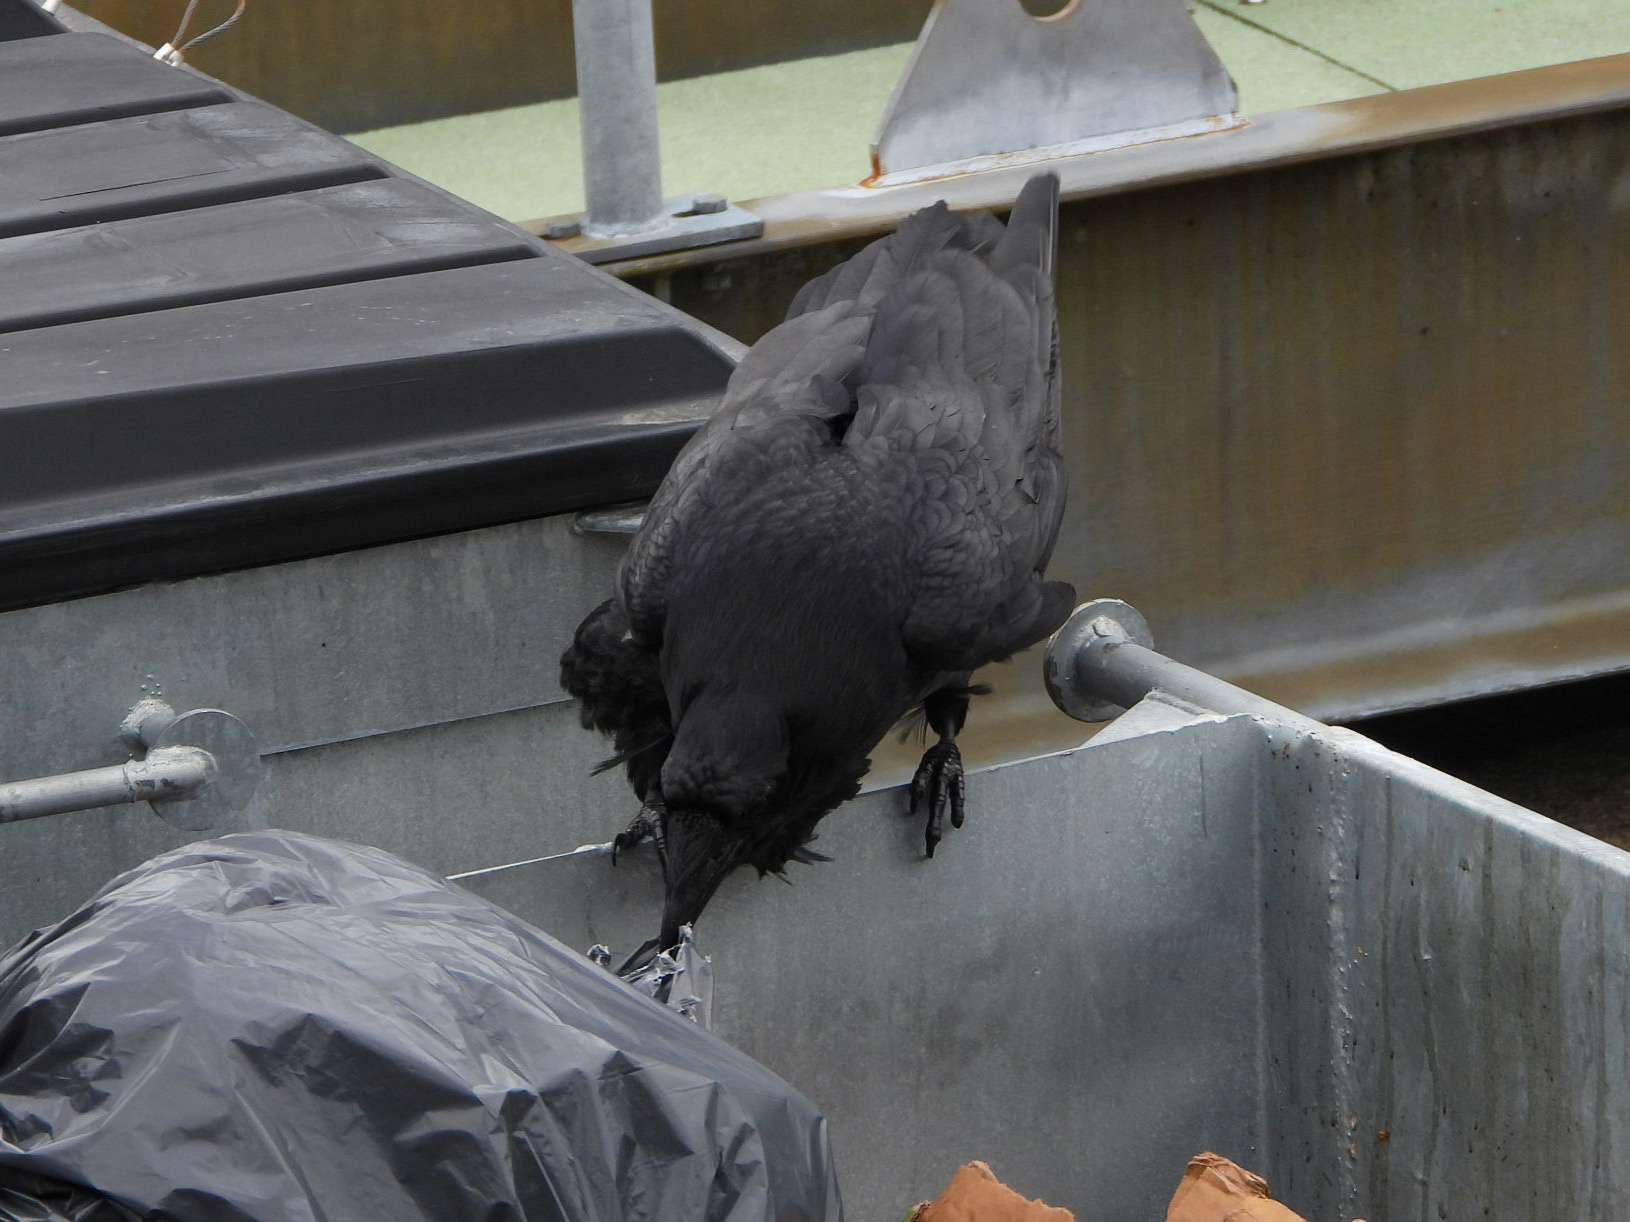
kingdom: Animalia
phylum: Chordata
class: Aves
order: Passeriformes
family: Corvidae
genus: Corvus
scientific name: Corvus corax
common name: Common raven
